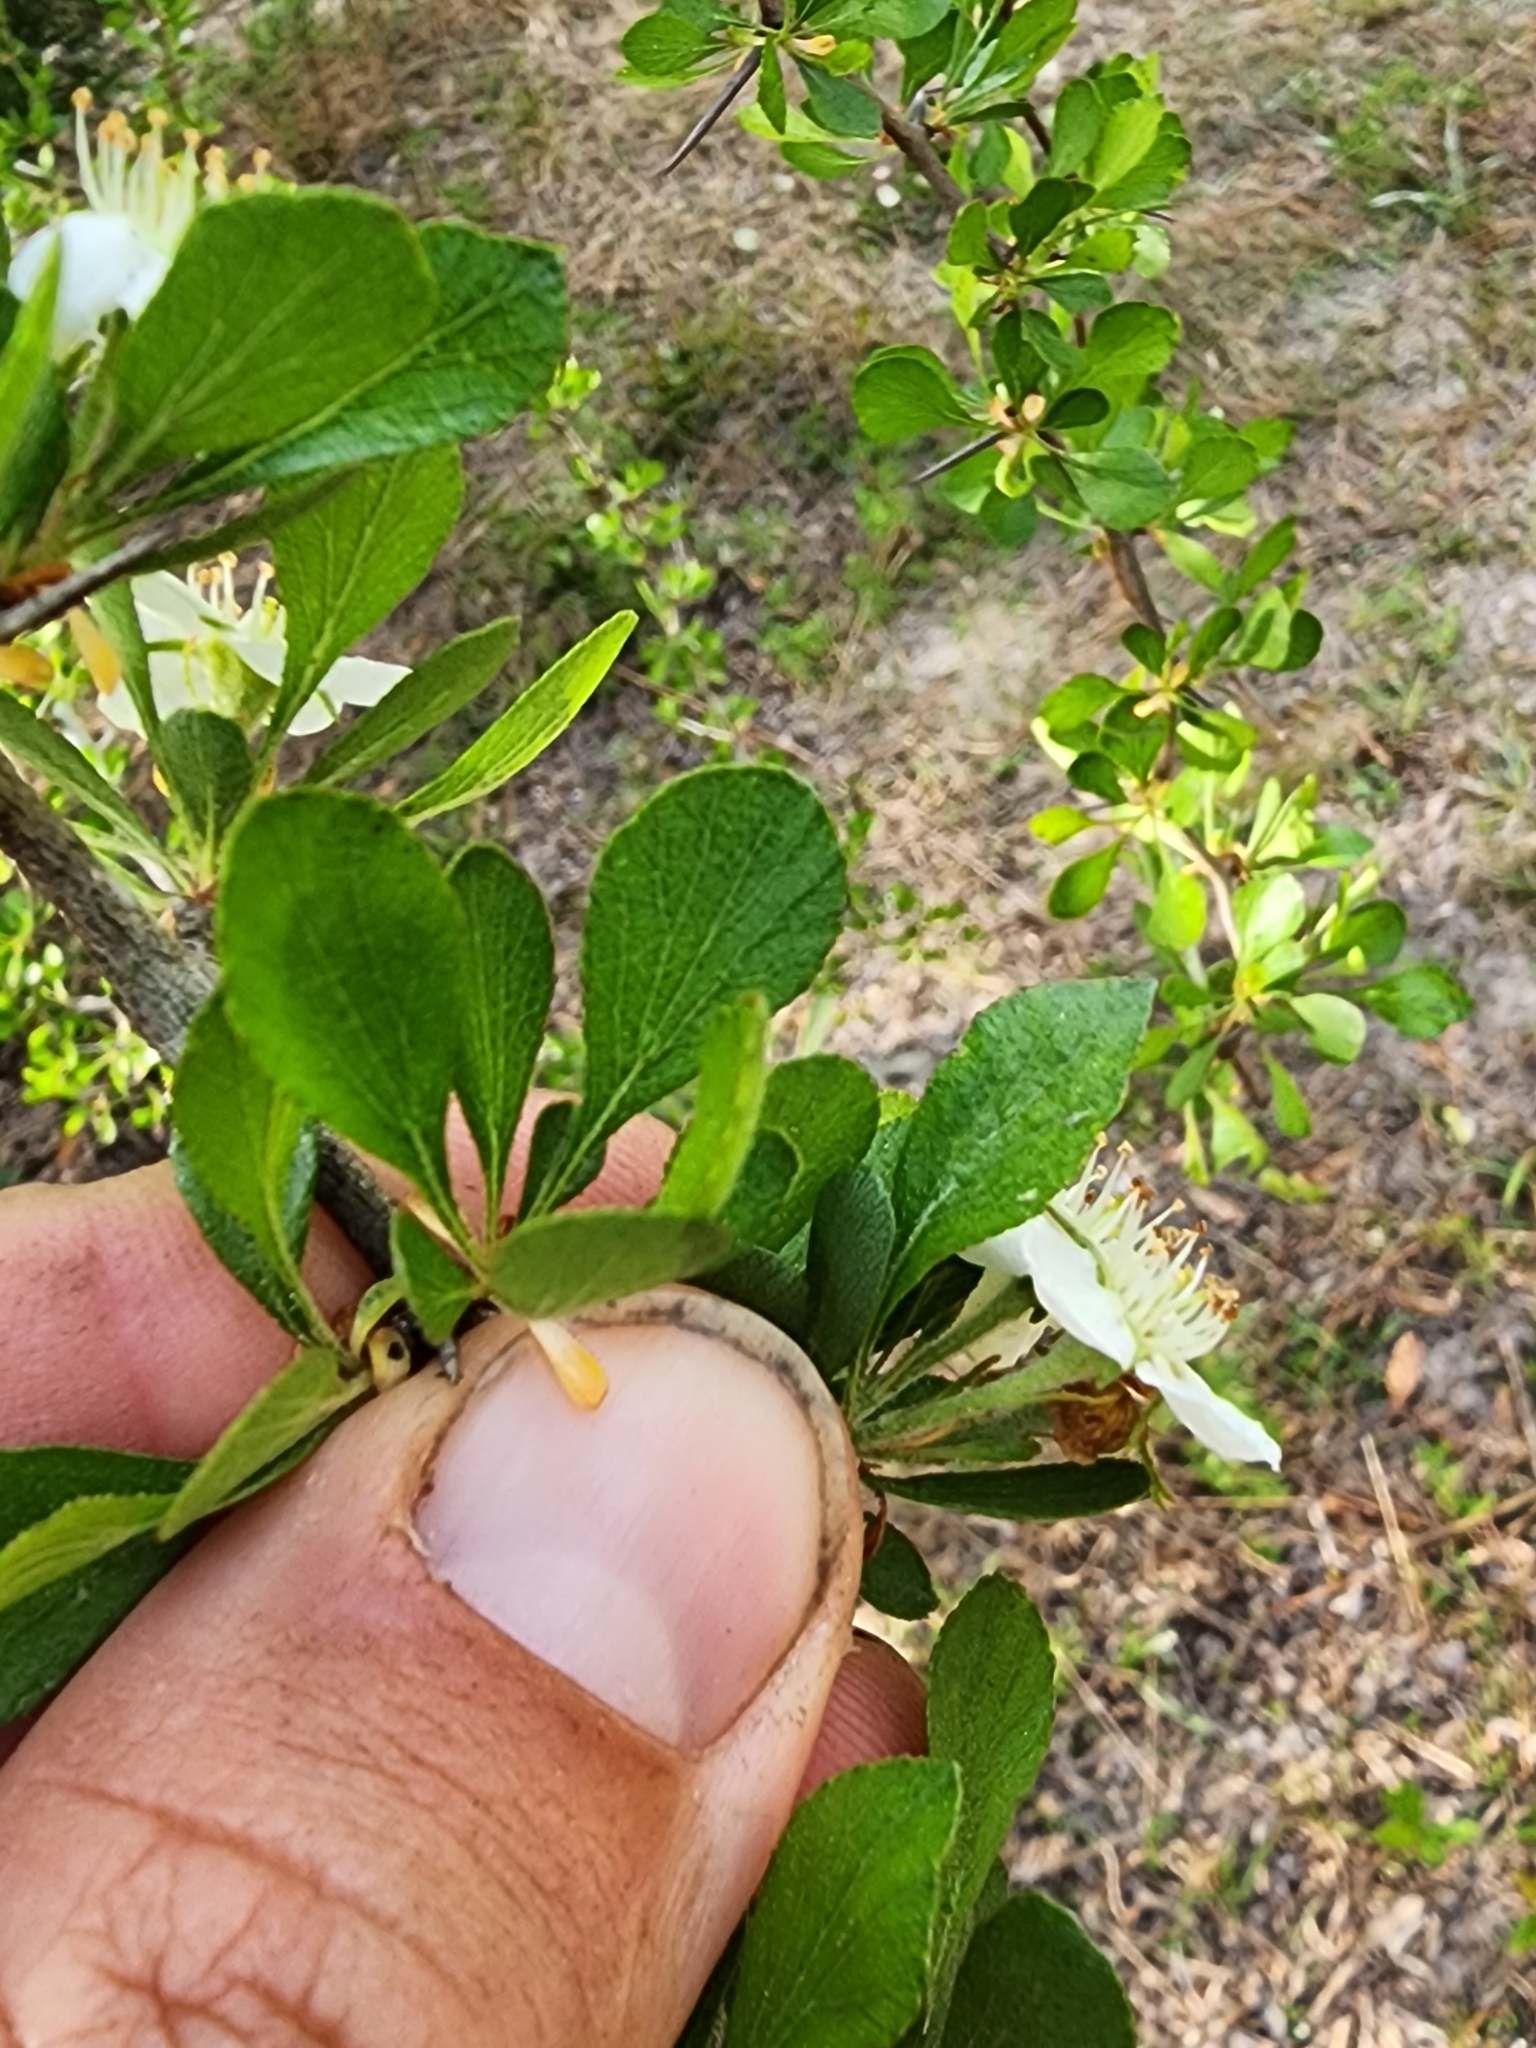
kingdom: Plantae
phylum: Tracheophyta
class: Magnoliopsida
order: Rosales
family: Rosaceae
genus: Crataegus
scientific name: Crataegus flava
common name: Yellow hawthorn
